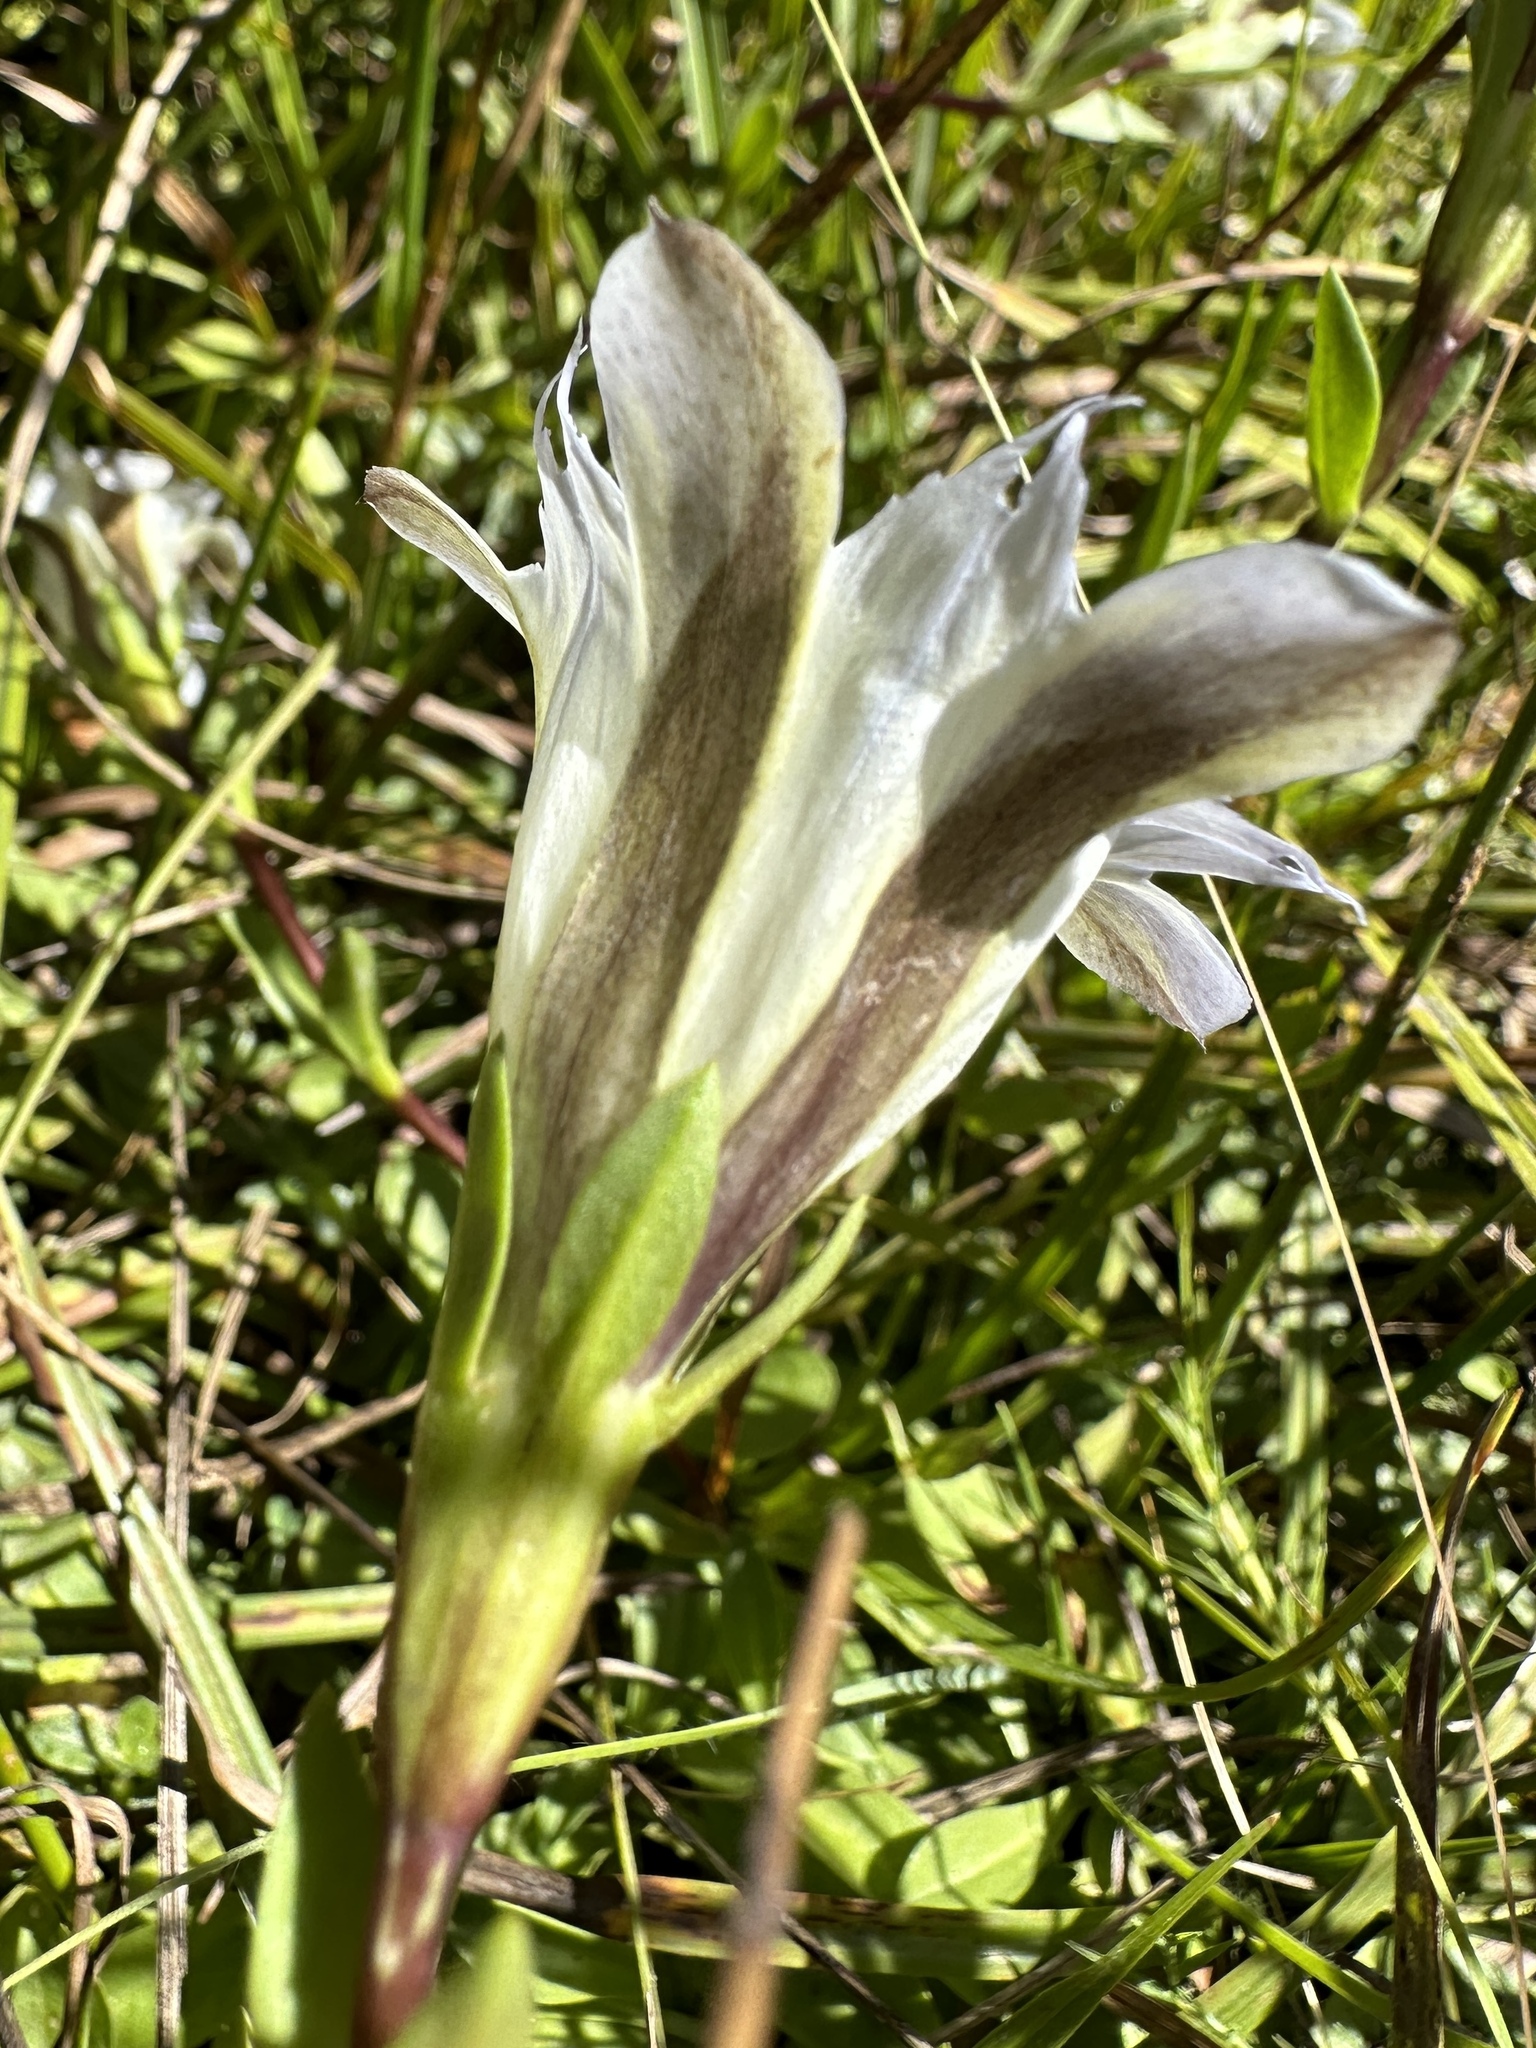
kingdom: Plantae
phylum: Tracheophyta
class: Magnoliopsida
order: Gentianales
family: Gentianaceae
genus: Gentiana
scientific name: Gentiana newberryi
